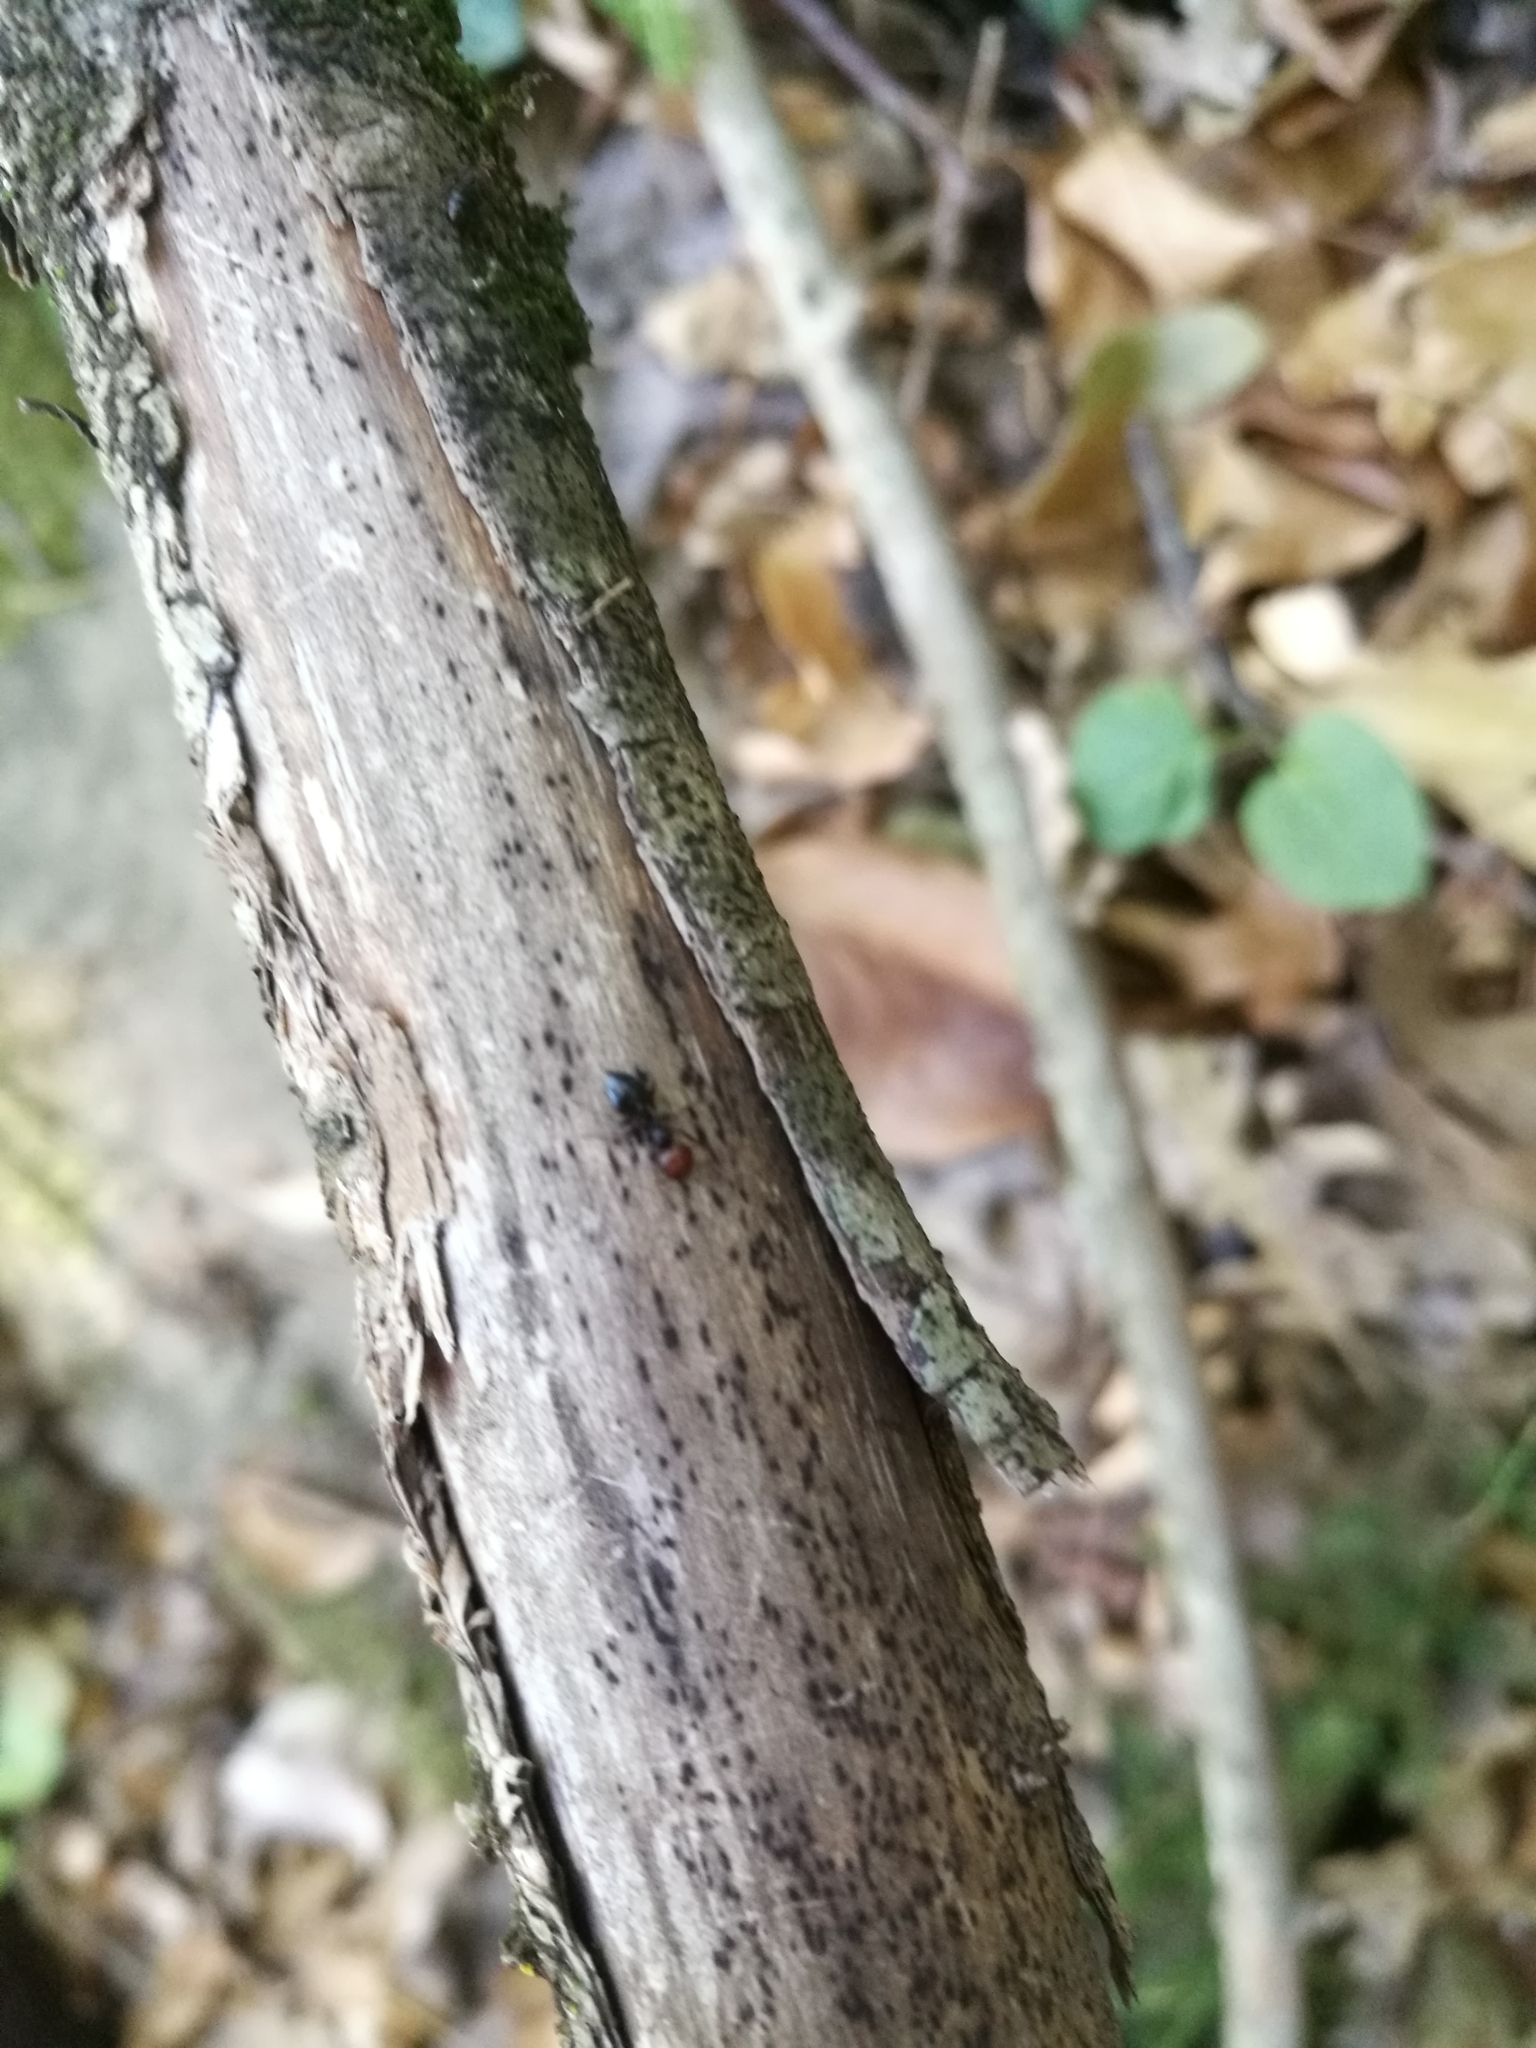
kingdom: Animalia
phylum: Arthropoda
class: Insecta
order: Hymenoptera
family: Formicidae
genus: Crematogaster
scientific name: Crematogaster scutellaris
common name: Fourmi du liège
